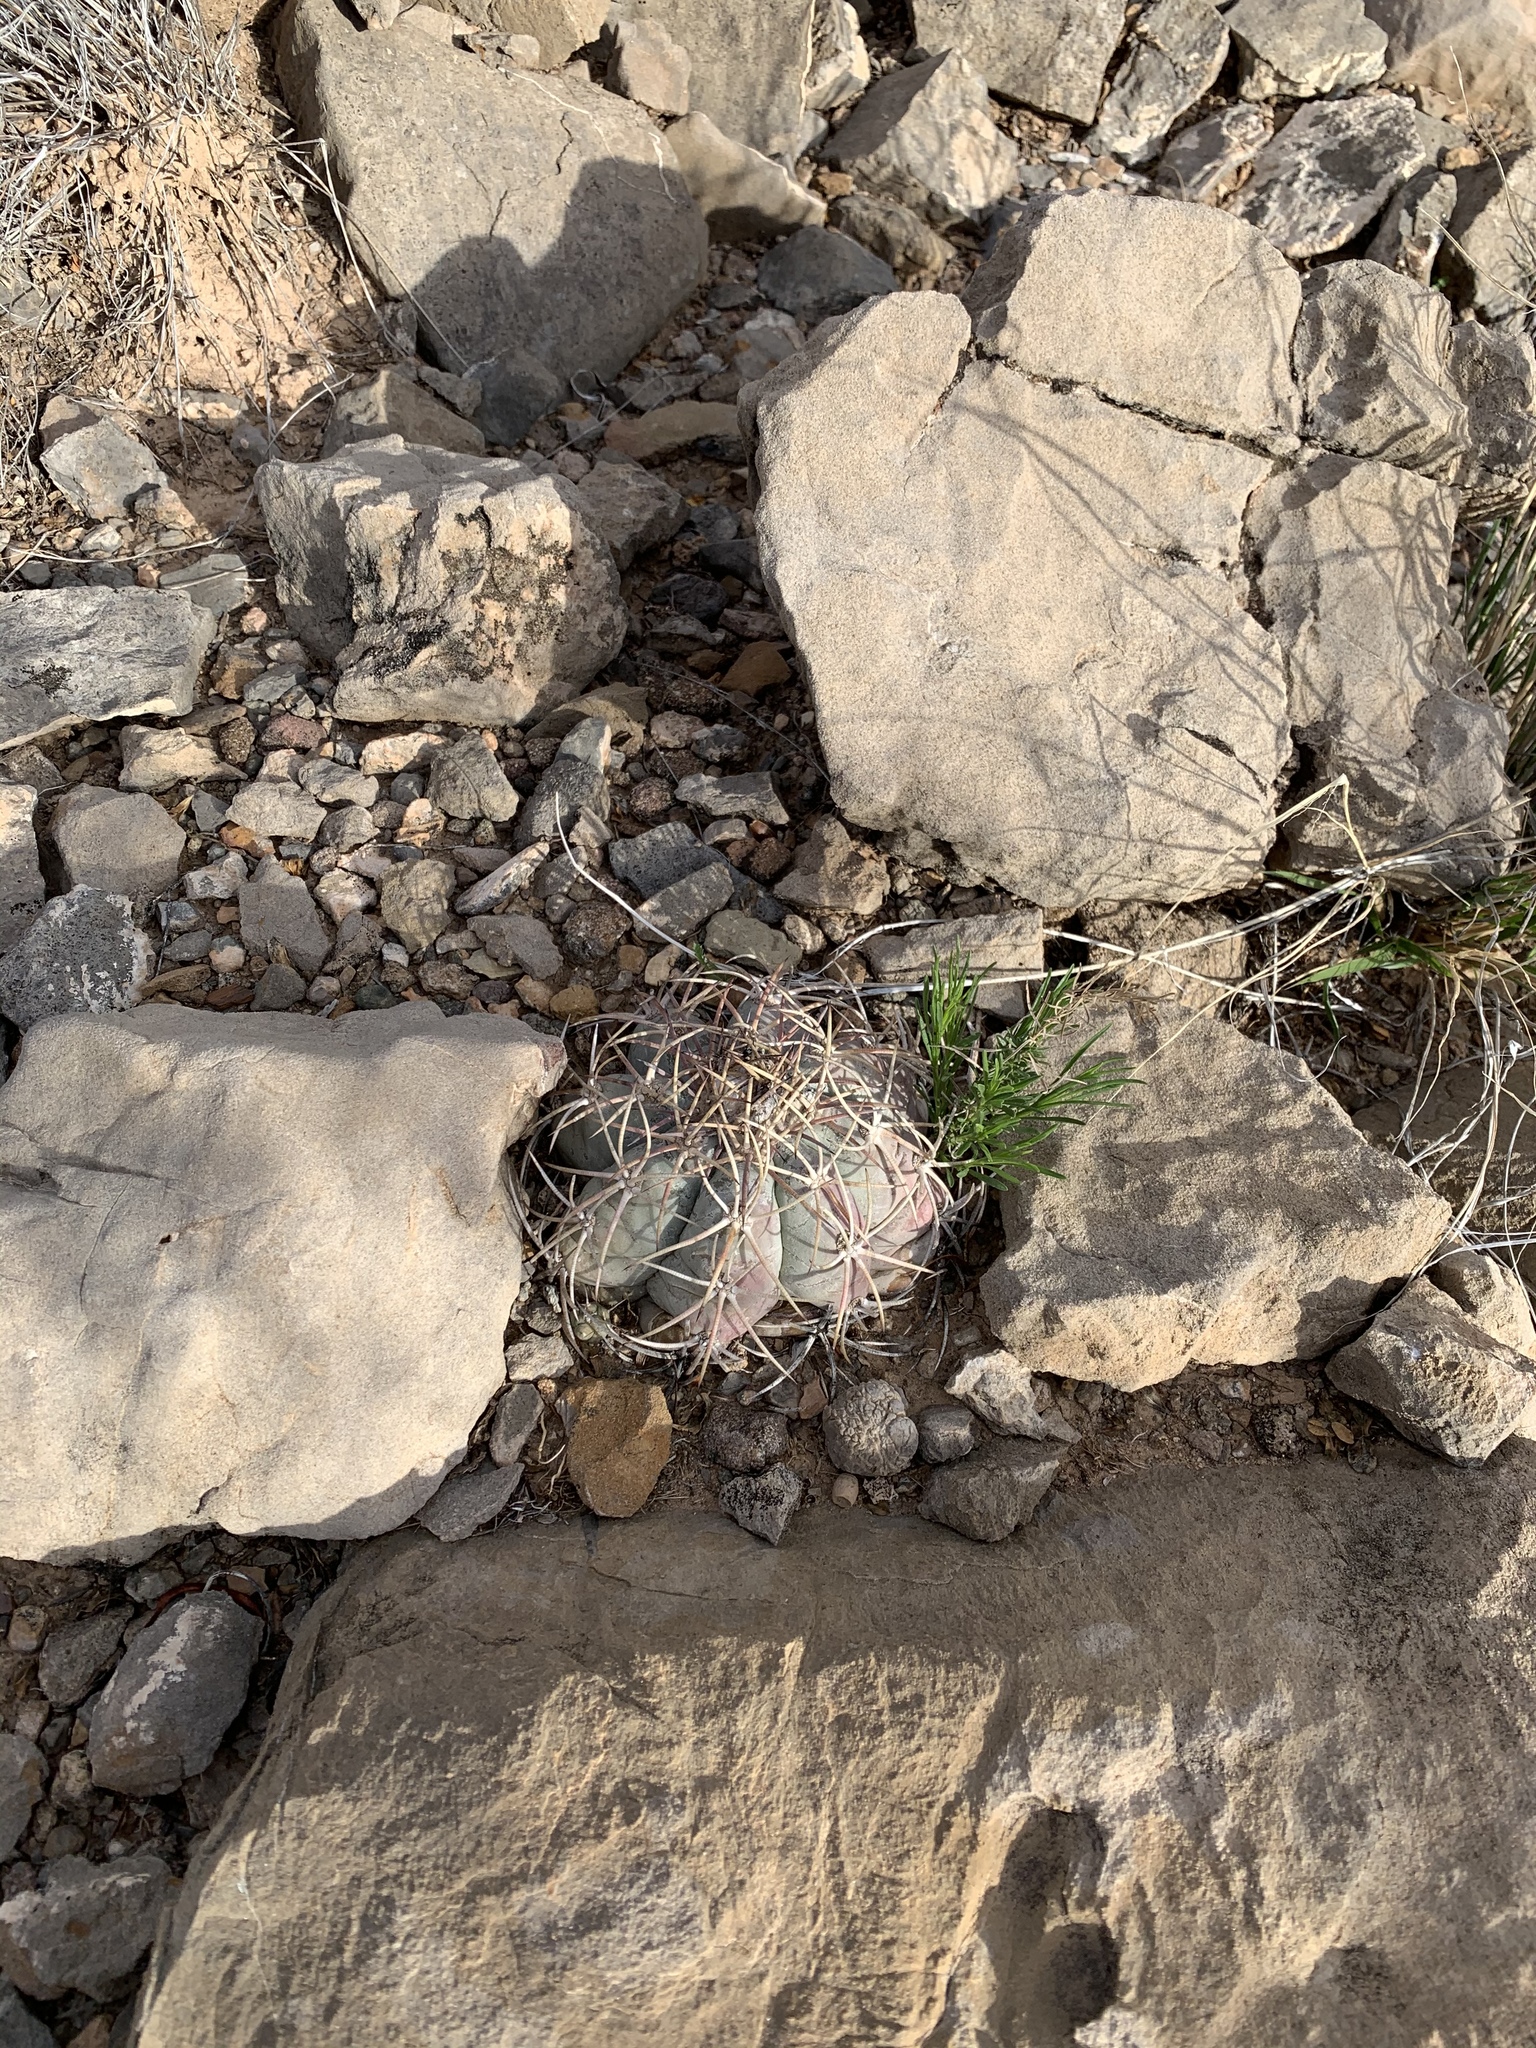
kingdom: Plantae
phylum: Tracheophyta
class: Magnoliopsida
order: Caryophyllales
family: Cactaceae
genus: Echinocactus
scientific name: Echinocactus horizonthalonius
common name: Devilshead
